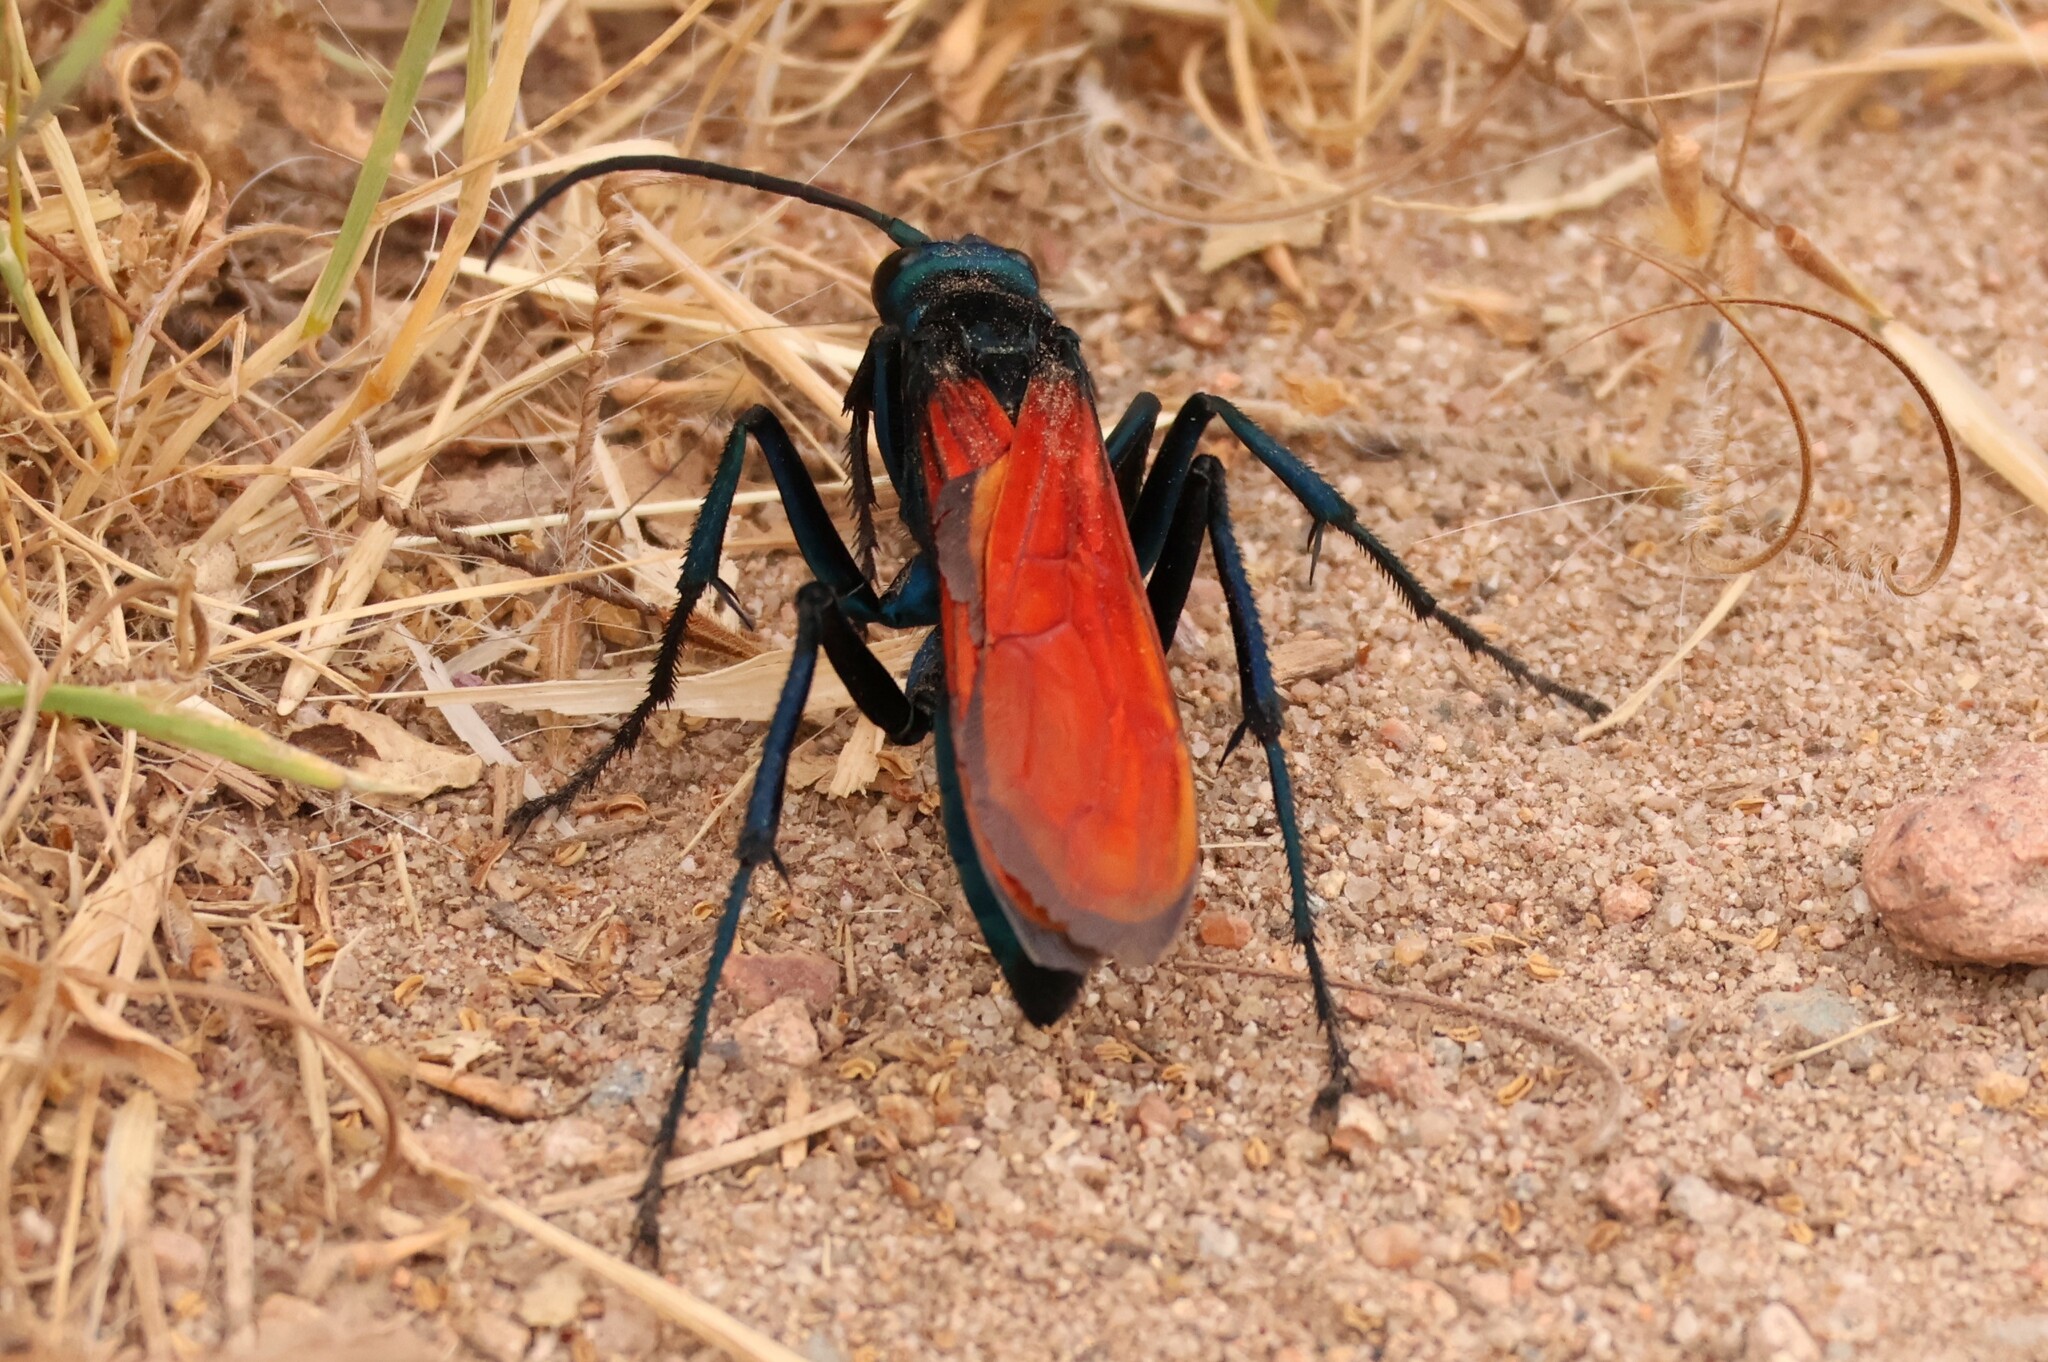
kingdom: Animalia
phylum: Arthropoda
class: Insecta
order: Hymenoptera
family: Pompilidae
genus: Pepsis
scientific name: Pepsis thisbe
